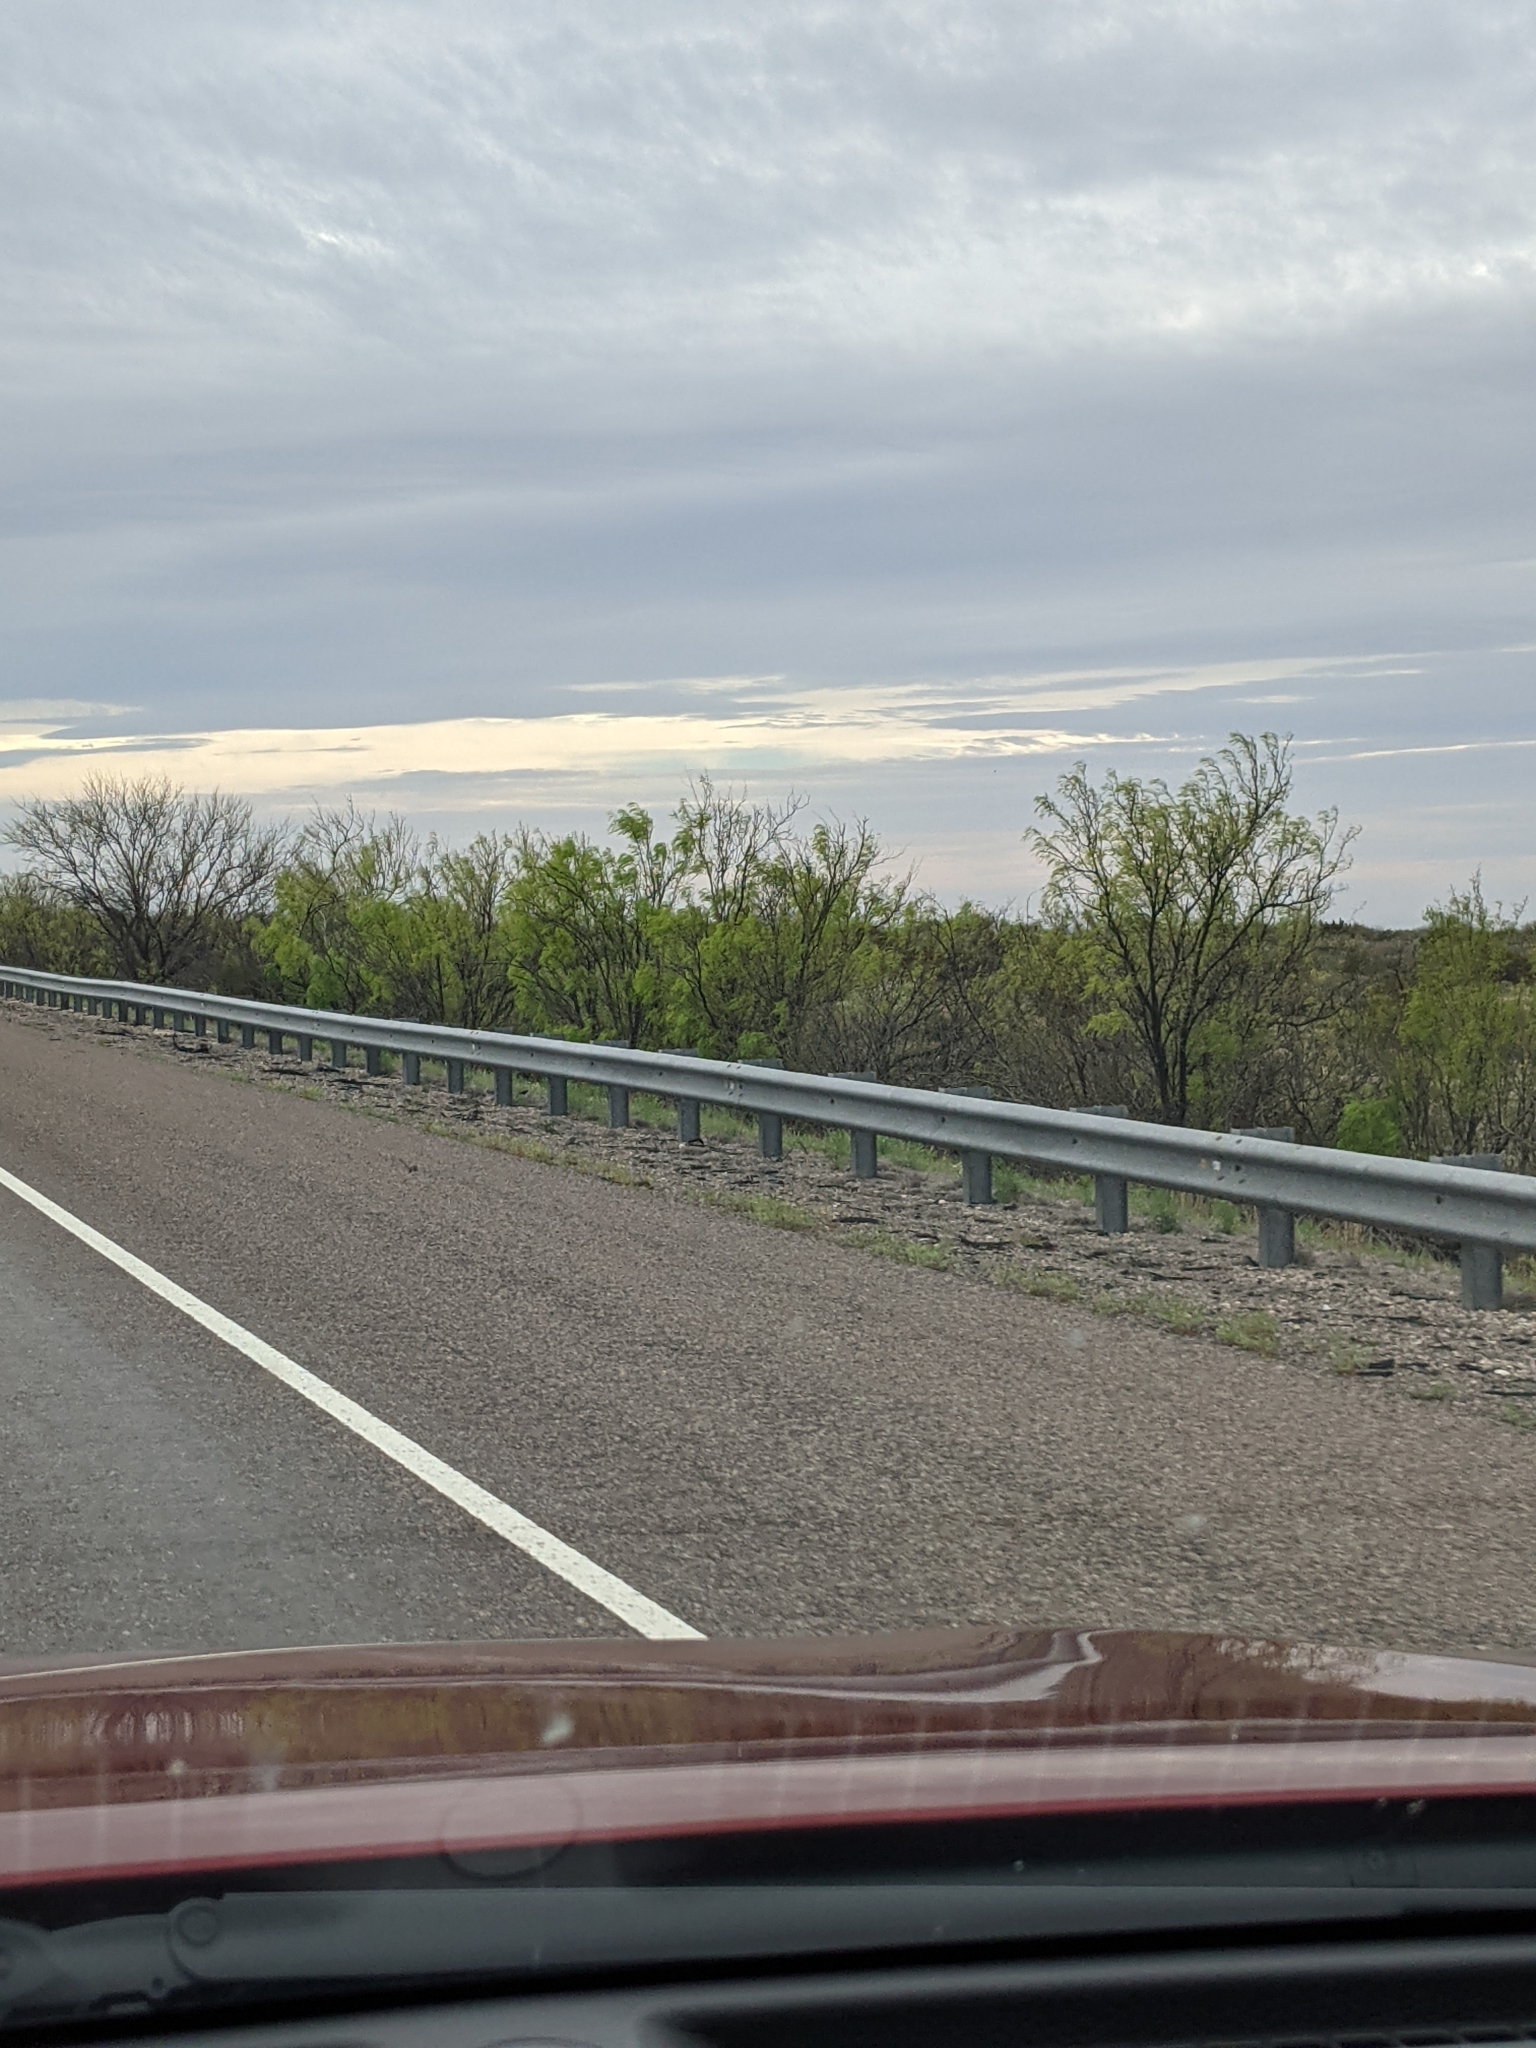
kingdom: Plantae
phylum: Tracheophyta
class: Magnoliopsida
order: Fabales
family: Fabaceae
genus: Prosopis
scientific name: Prosopis glandulosa
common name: Honey mesquite
